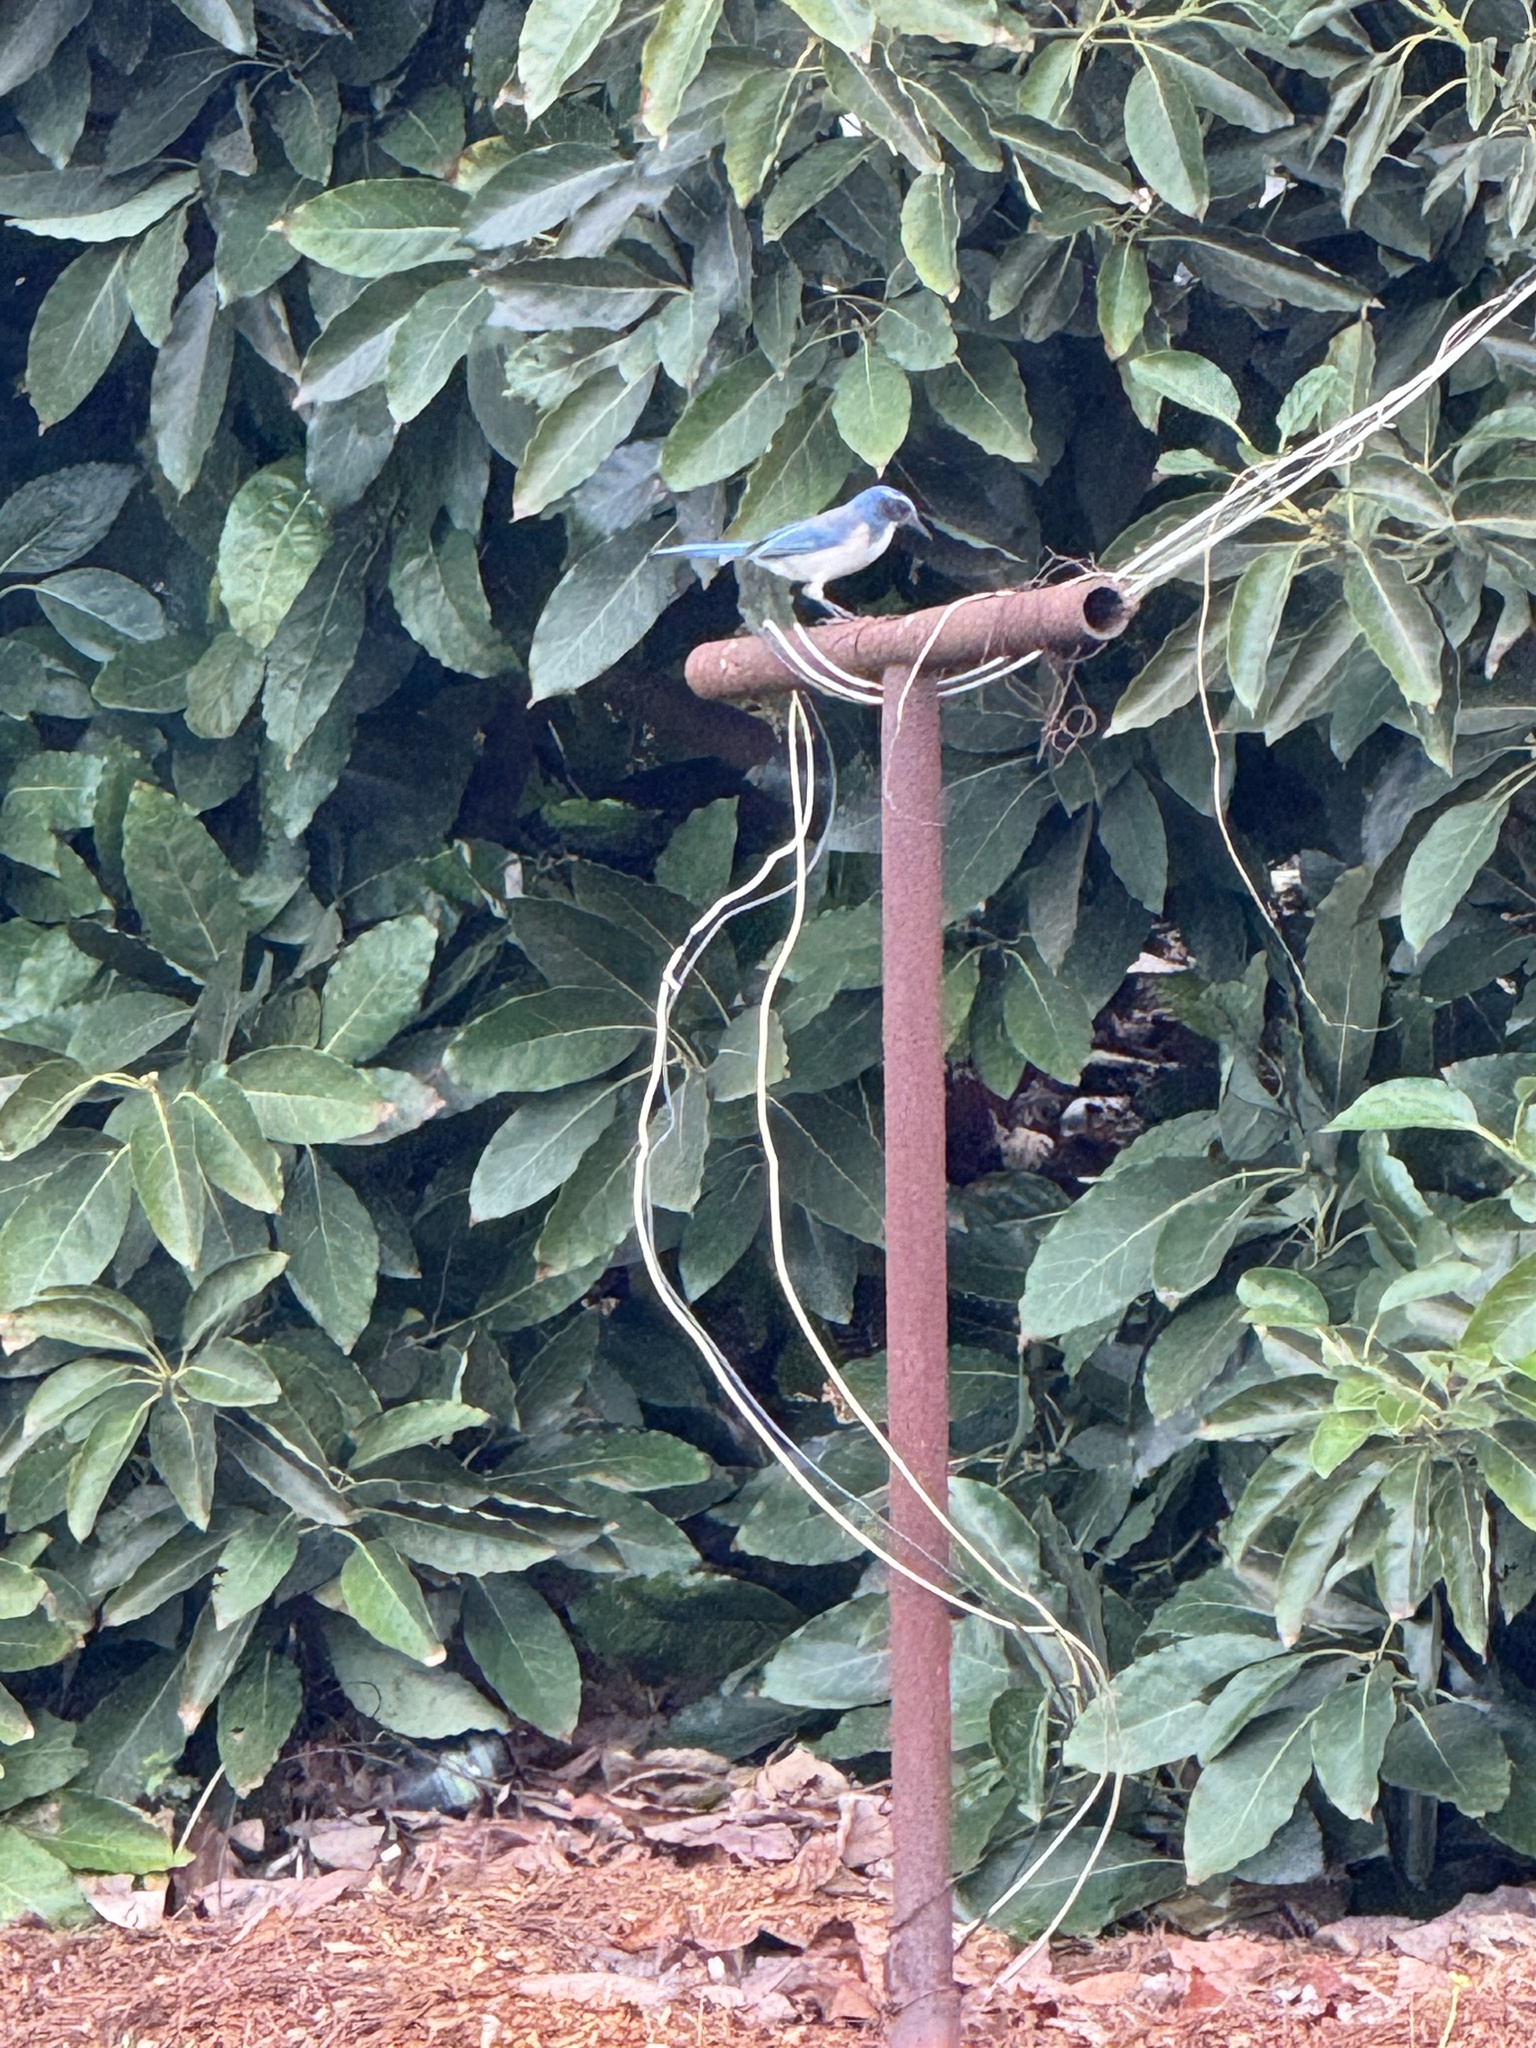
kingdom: Animalia
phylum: Chordata
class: Aves
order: Passeriformes
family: Corvidae
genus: Aphelocoma
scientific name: Aphelocoma californica
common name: California scrub-jay
